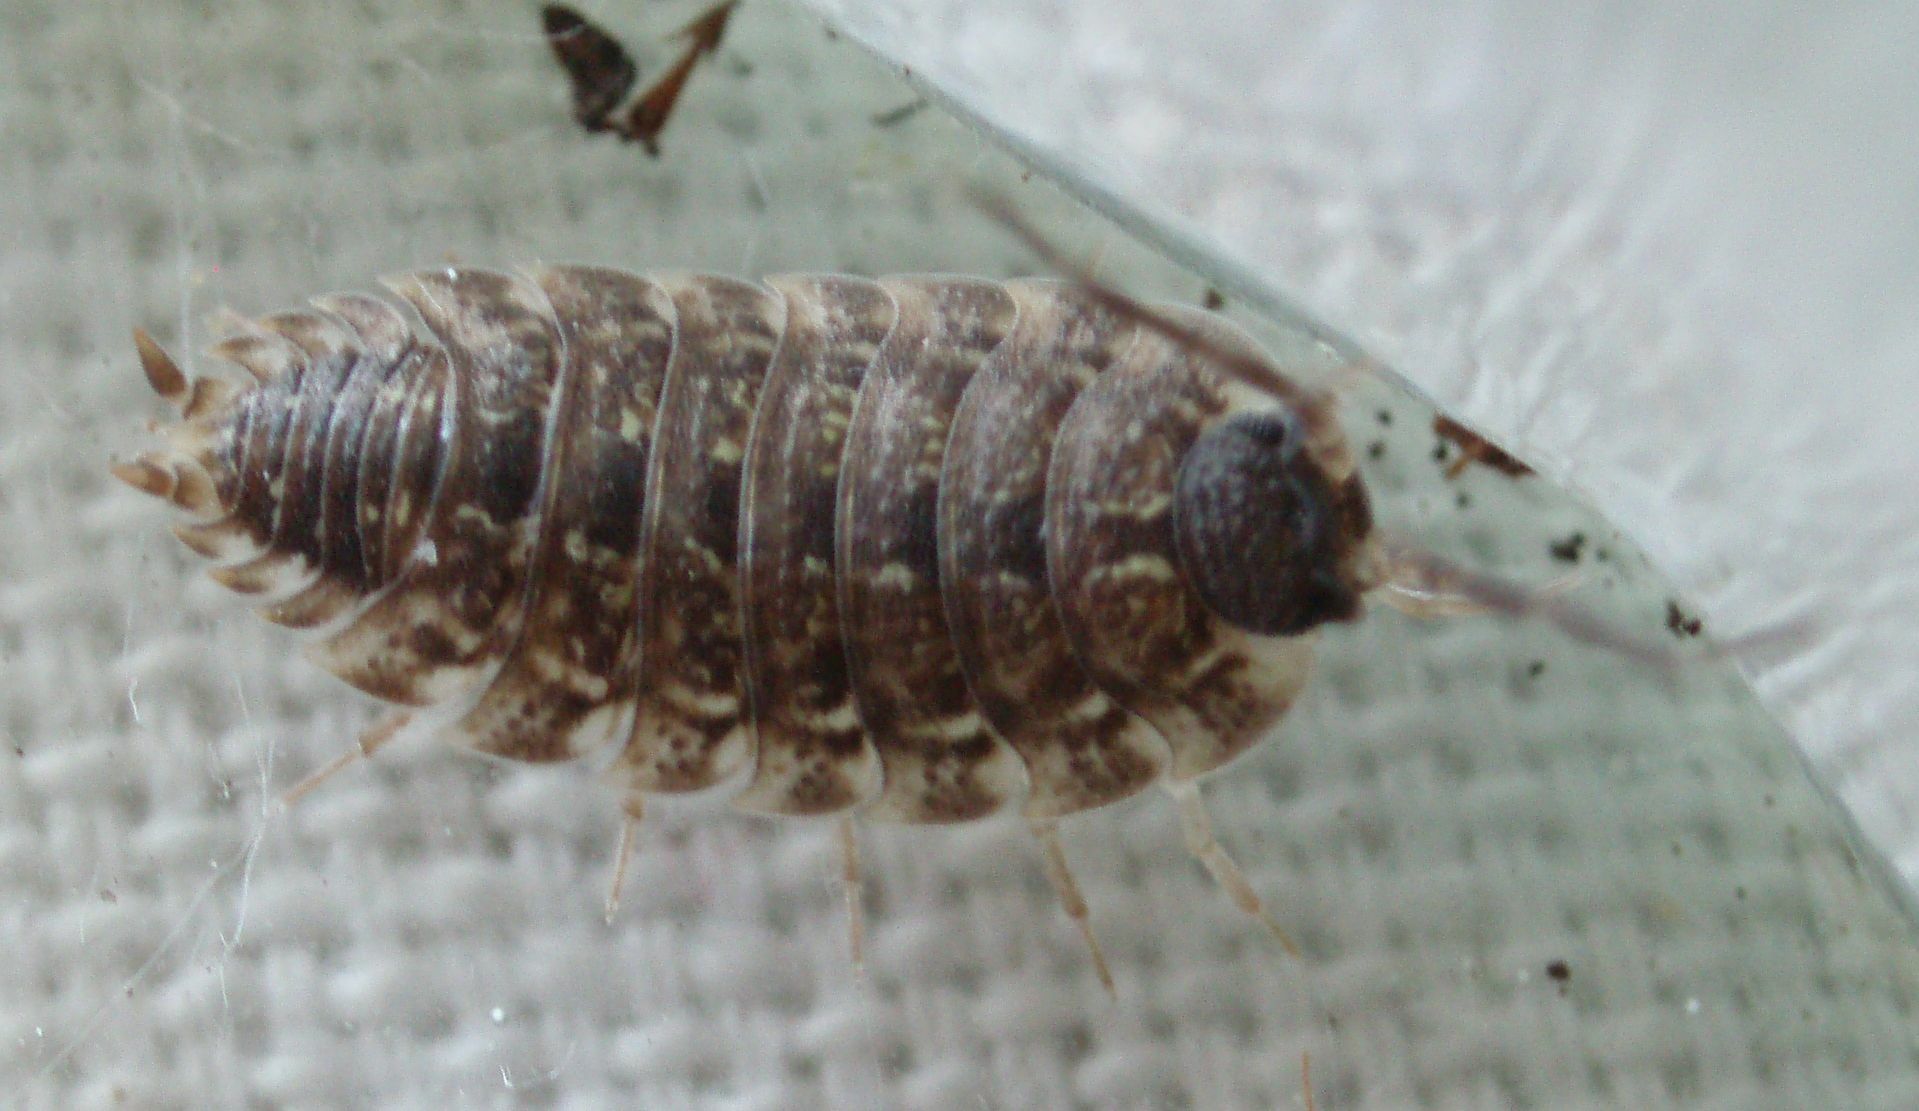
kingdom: Animalia
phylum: Arthropoda
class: Malacostraca
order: Isopoda
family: Porcellionidae
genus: Porcellio
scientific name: Porcellio spinicornis
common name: Painted woodlouse
